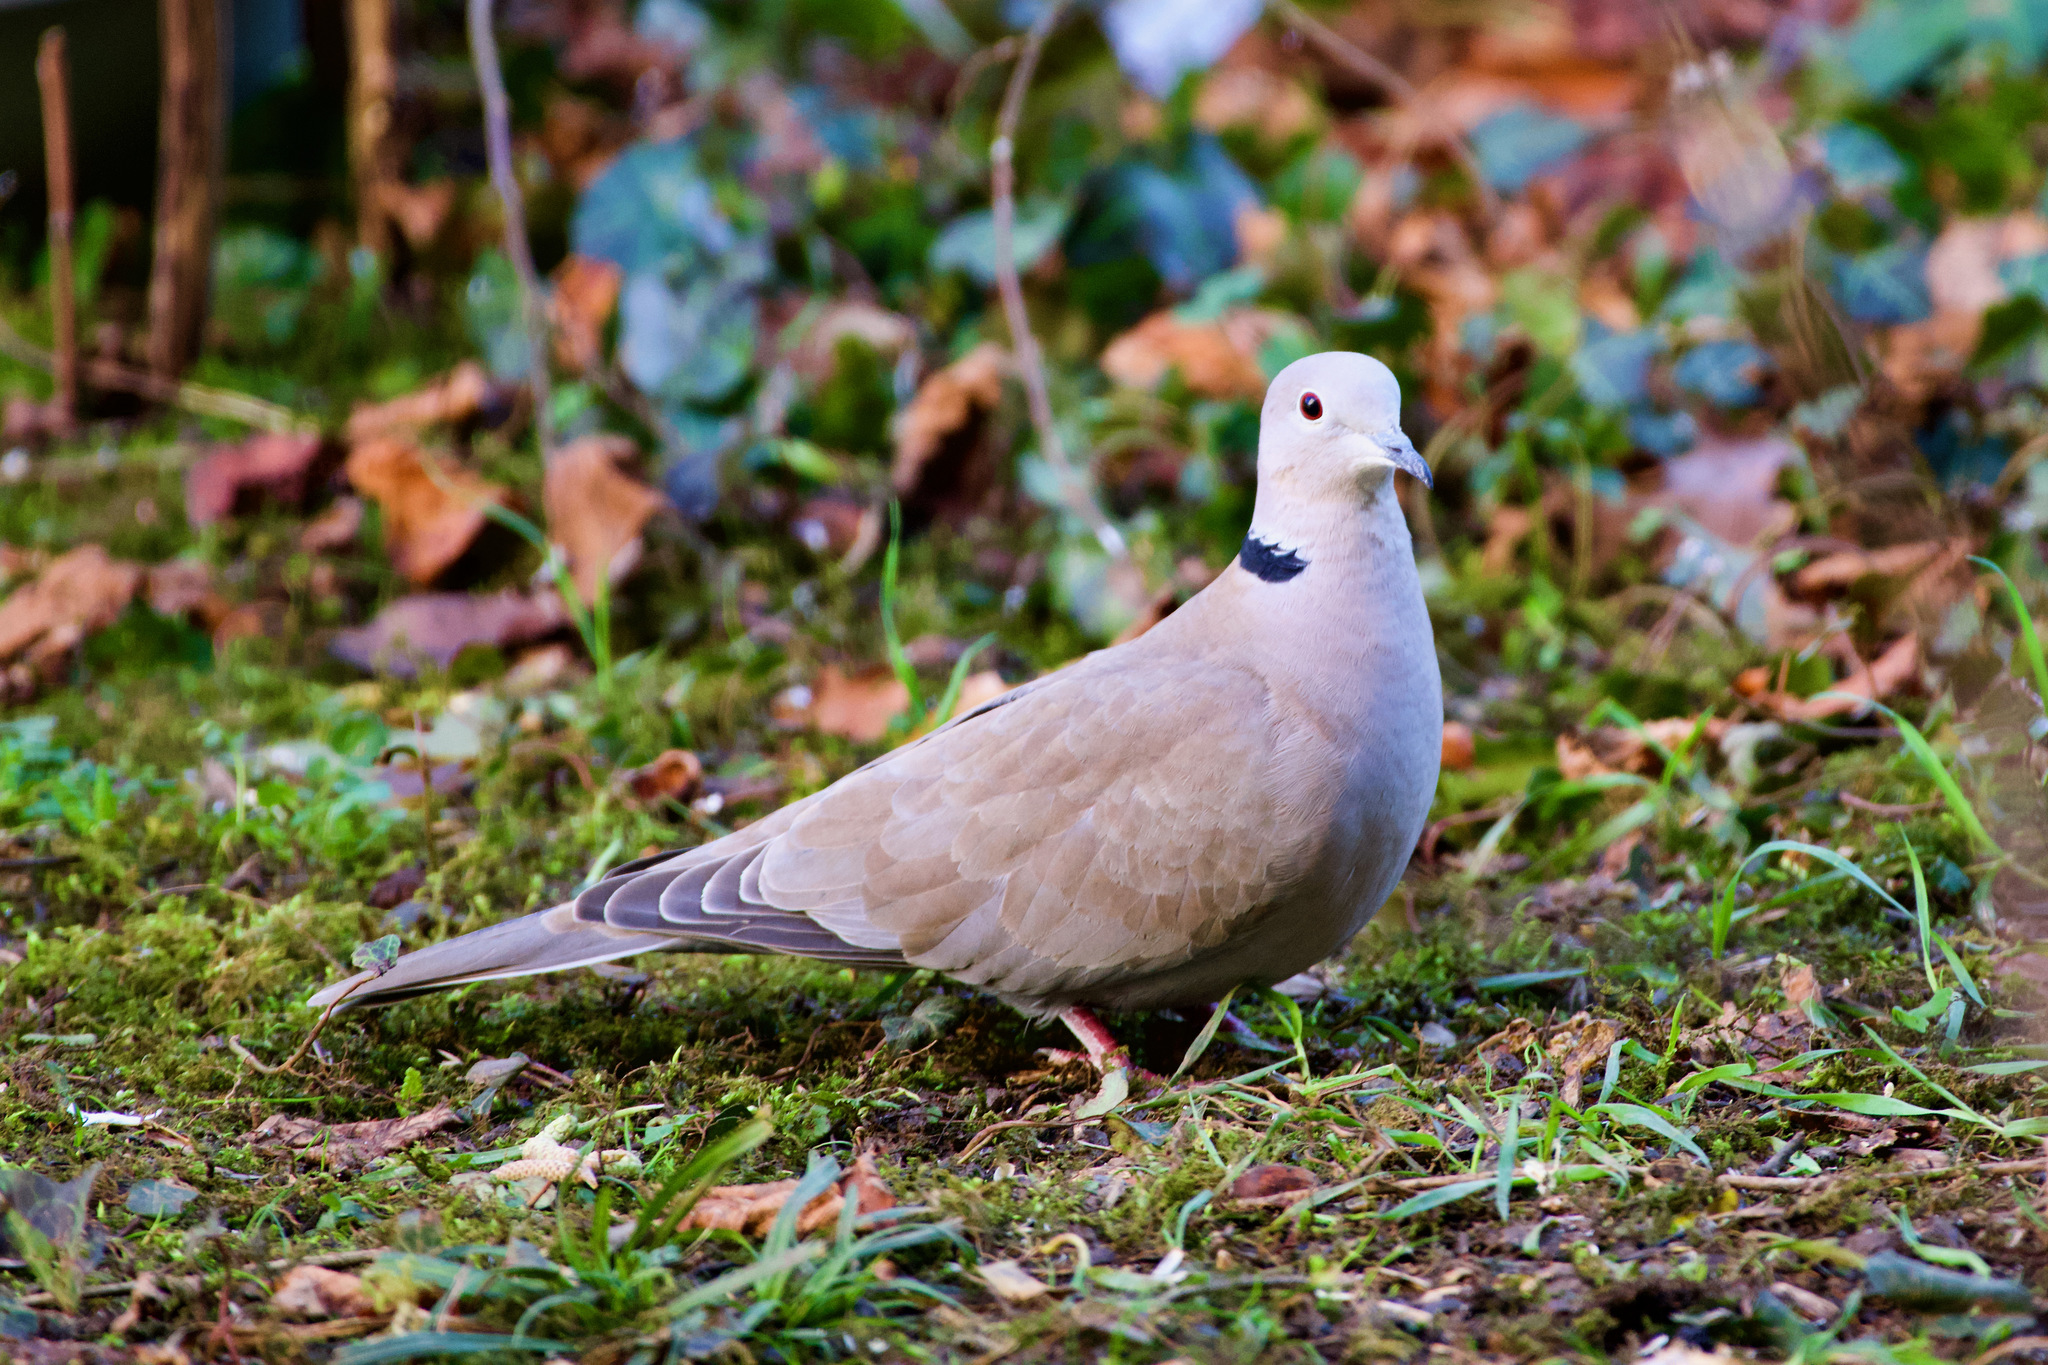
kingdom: Animalia
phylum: Chordata
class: Aves
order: Columbiformes
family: Columbidae
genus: Streptopelia
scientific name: Streptopelia decaocto
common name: Eurasian collared dove
